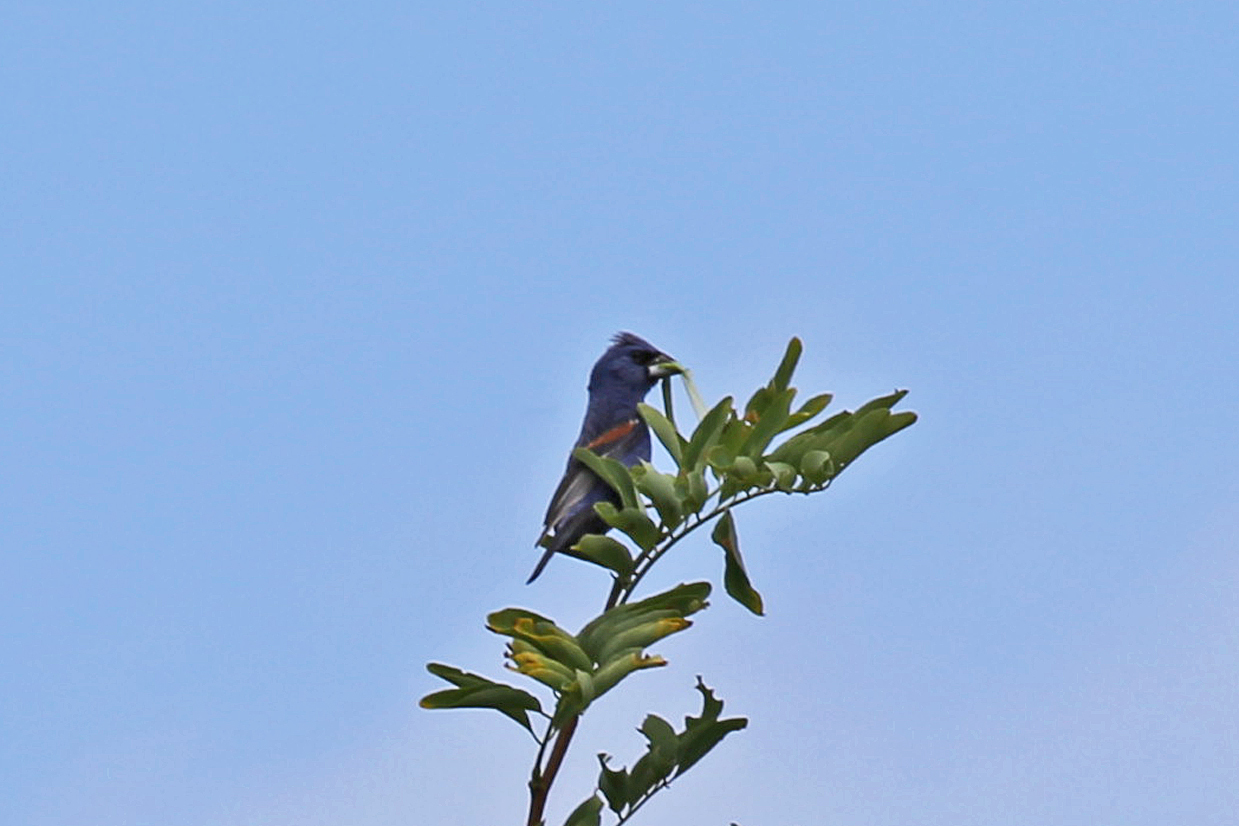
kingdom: Animalia
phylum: Chordata
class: Aves
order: Passeriformes
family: Cardinalidae
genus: Passerina
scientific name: Passerina caerulea
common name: Blue grosbeak
